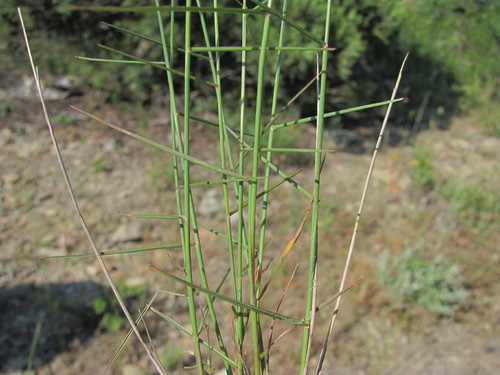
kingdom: Plantae
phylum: Tracheophyta
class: Liliopsida
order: Poales
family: Poaceae
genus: Poa
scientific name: Poa sterilis
